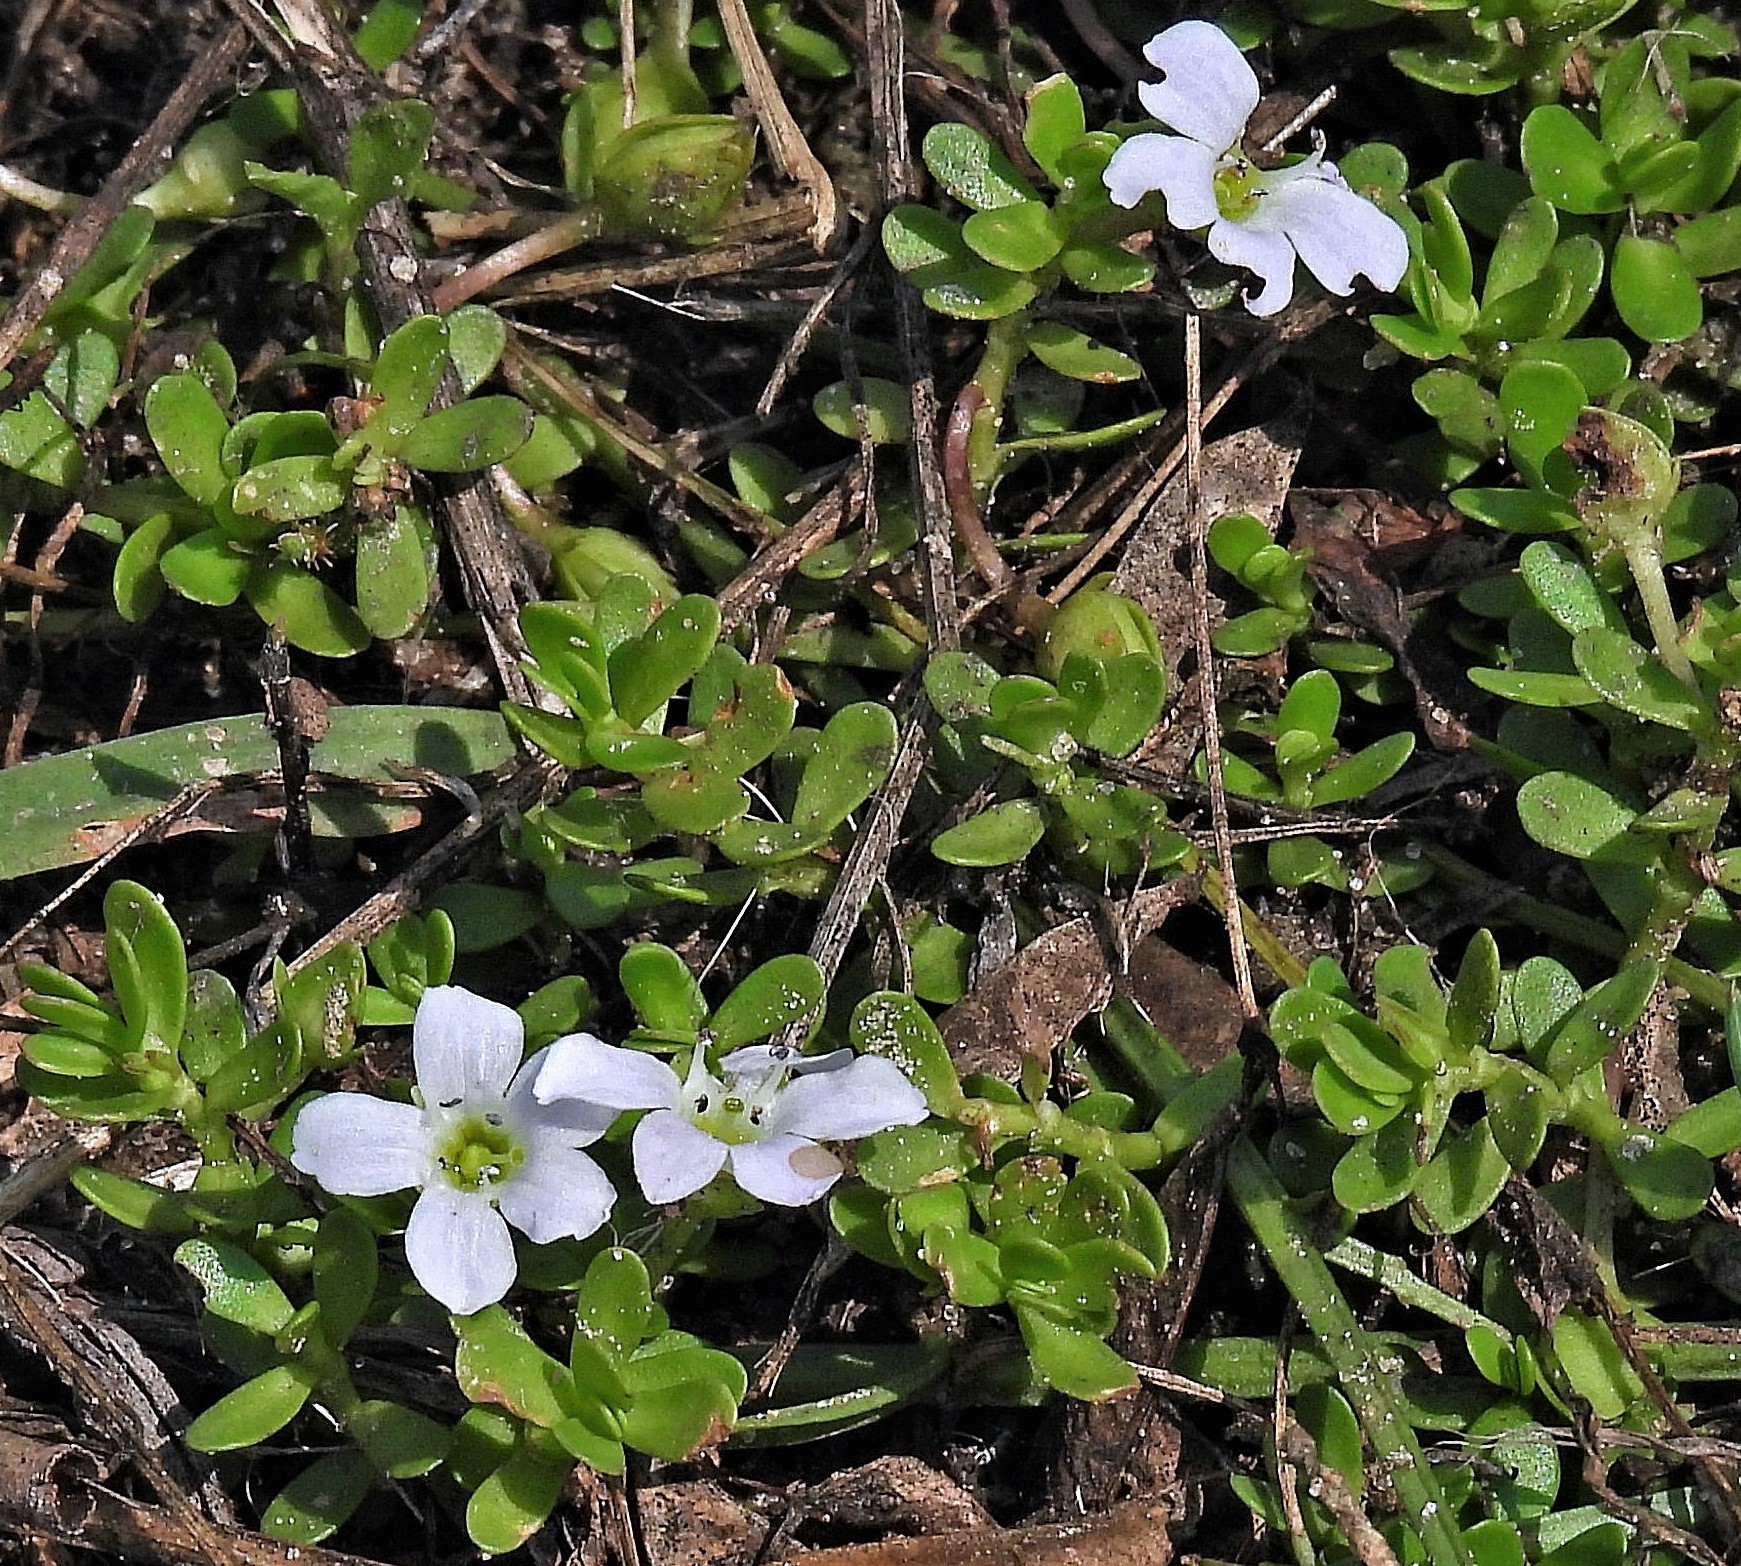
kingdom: Plantae
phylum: Tracheophyta
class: Magnoliopsida
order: Lamiales
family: Plantaginaceae
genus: Bacopa
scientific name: Bacopa monnieri
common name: Indian-pennywort
